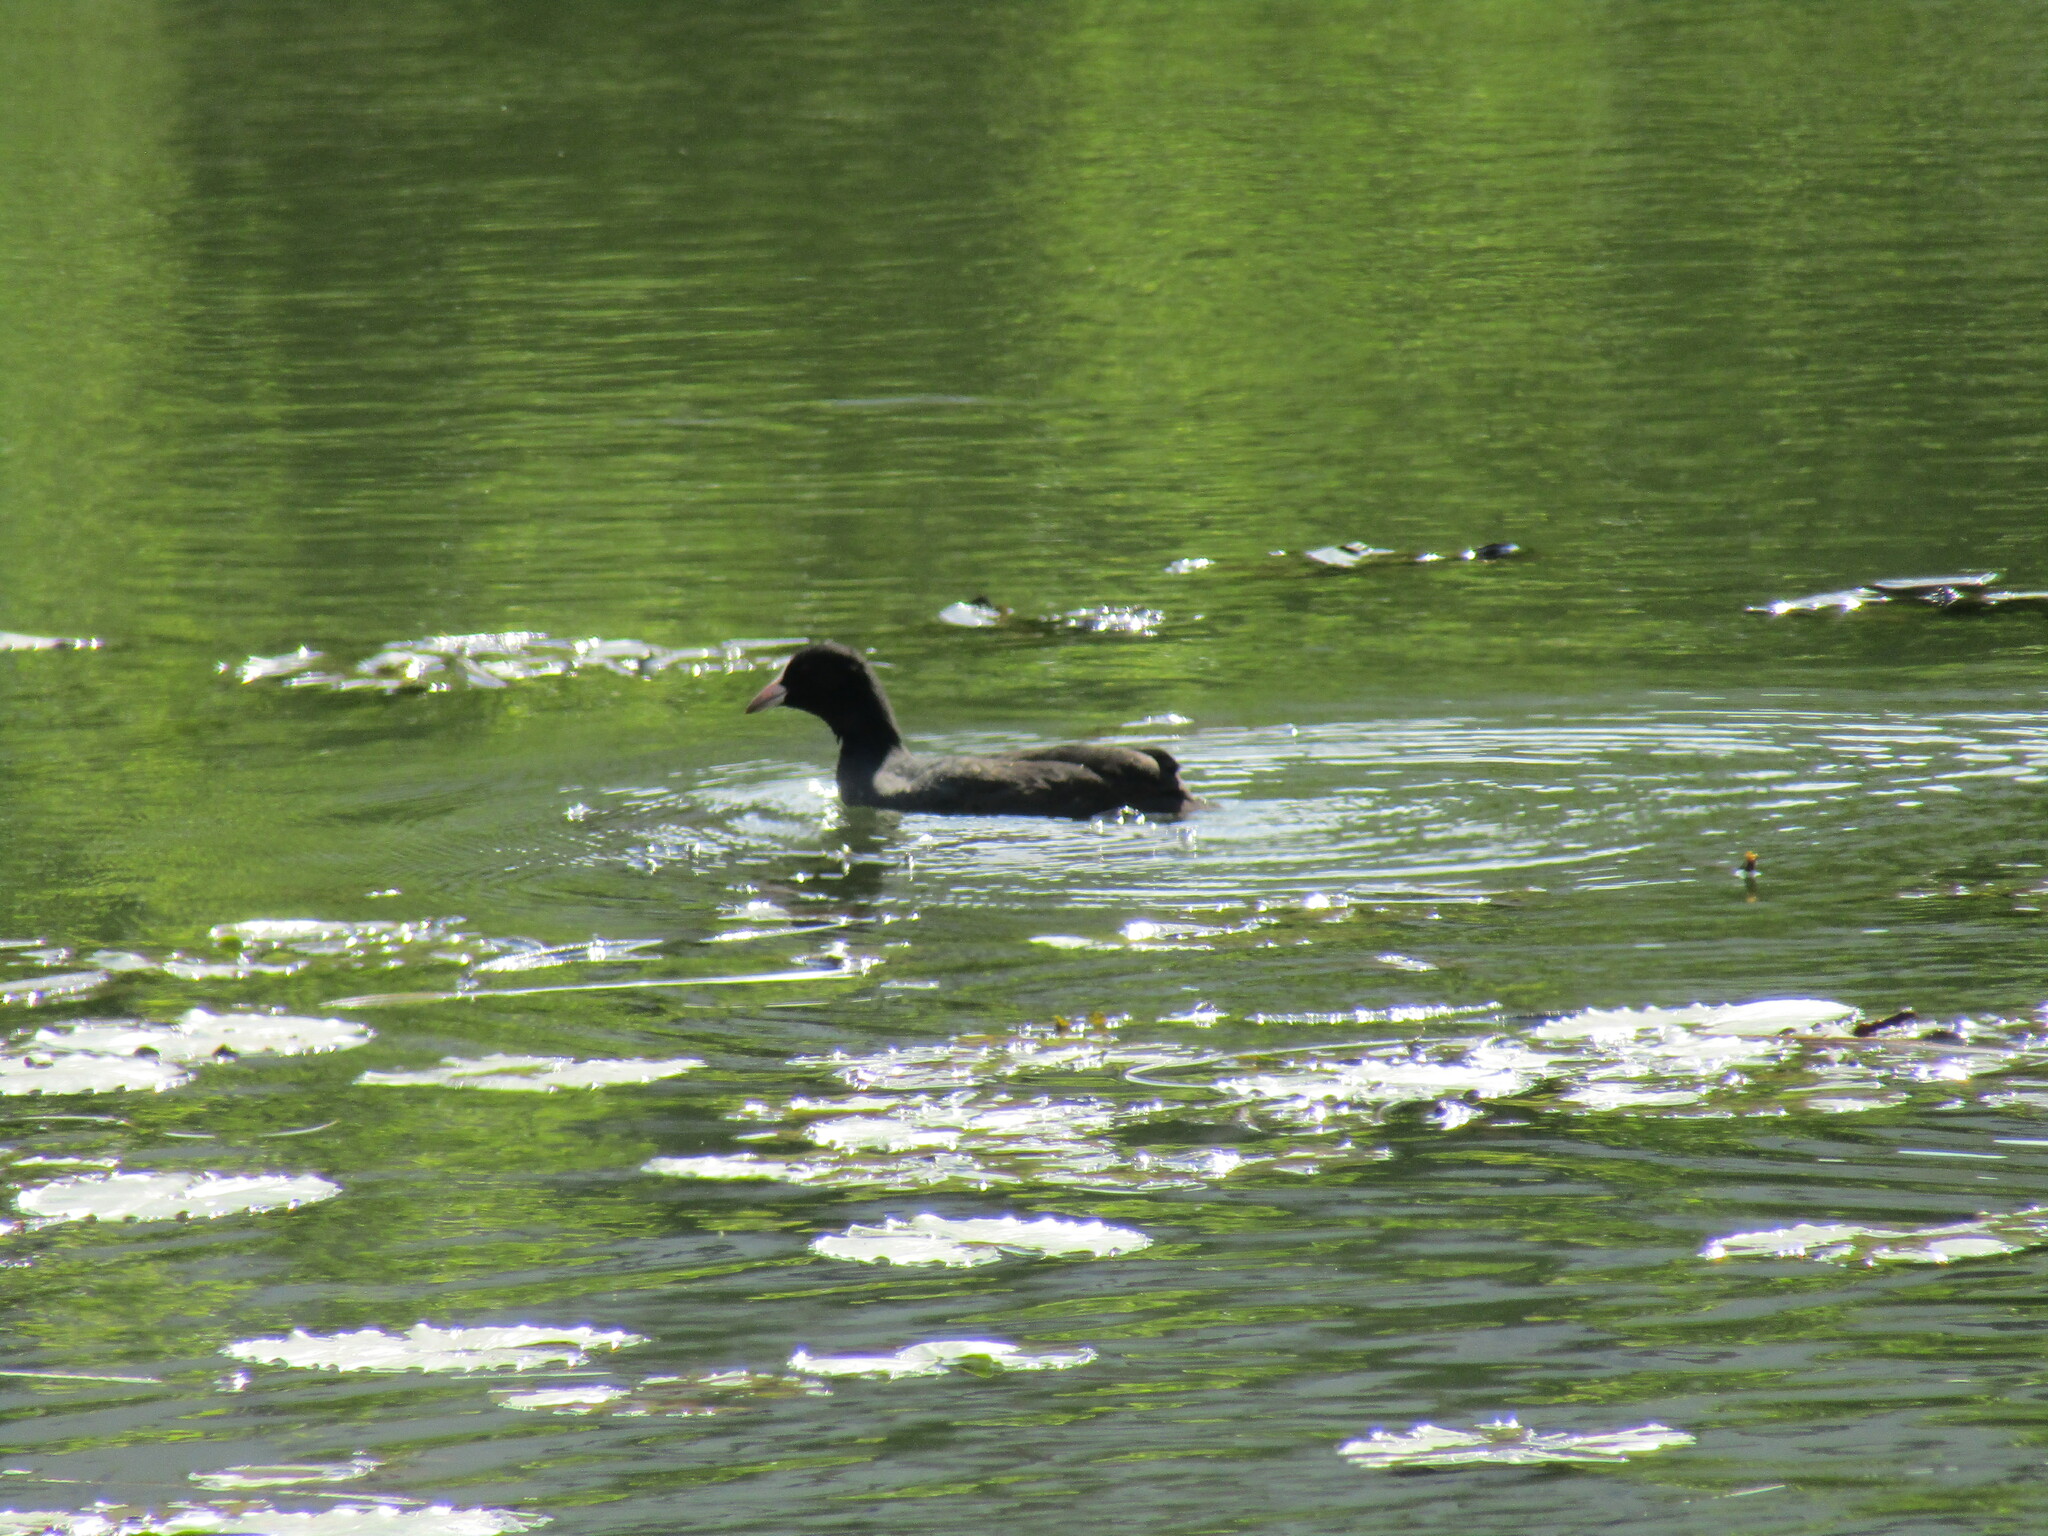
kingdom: Animalia
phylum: Chordata
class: Aves
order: Gruiformes
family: Rallidae
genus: Fulica
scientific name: Fulica atra
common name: Eurasian coot
